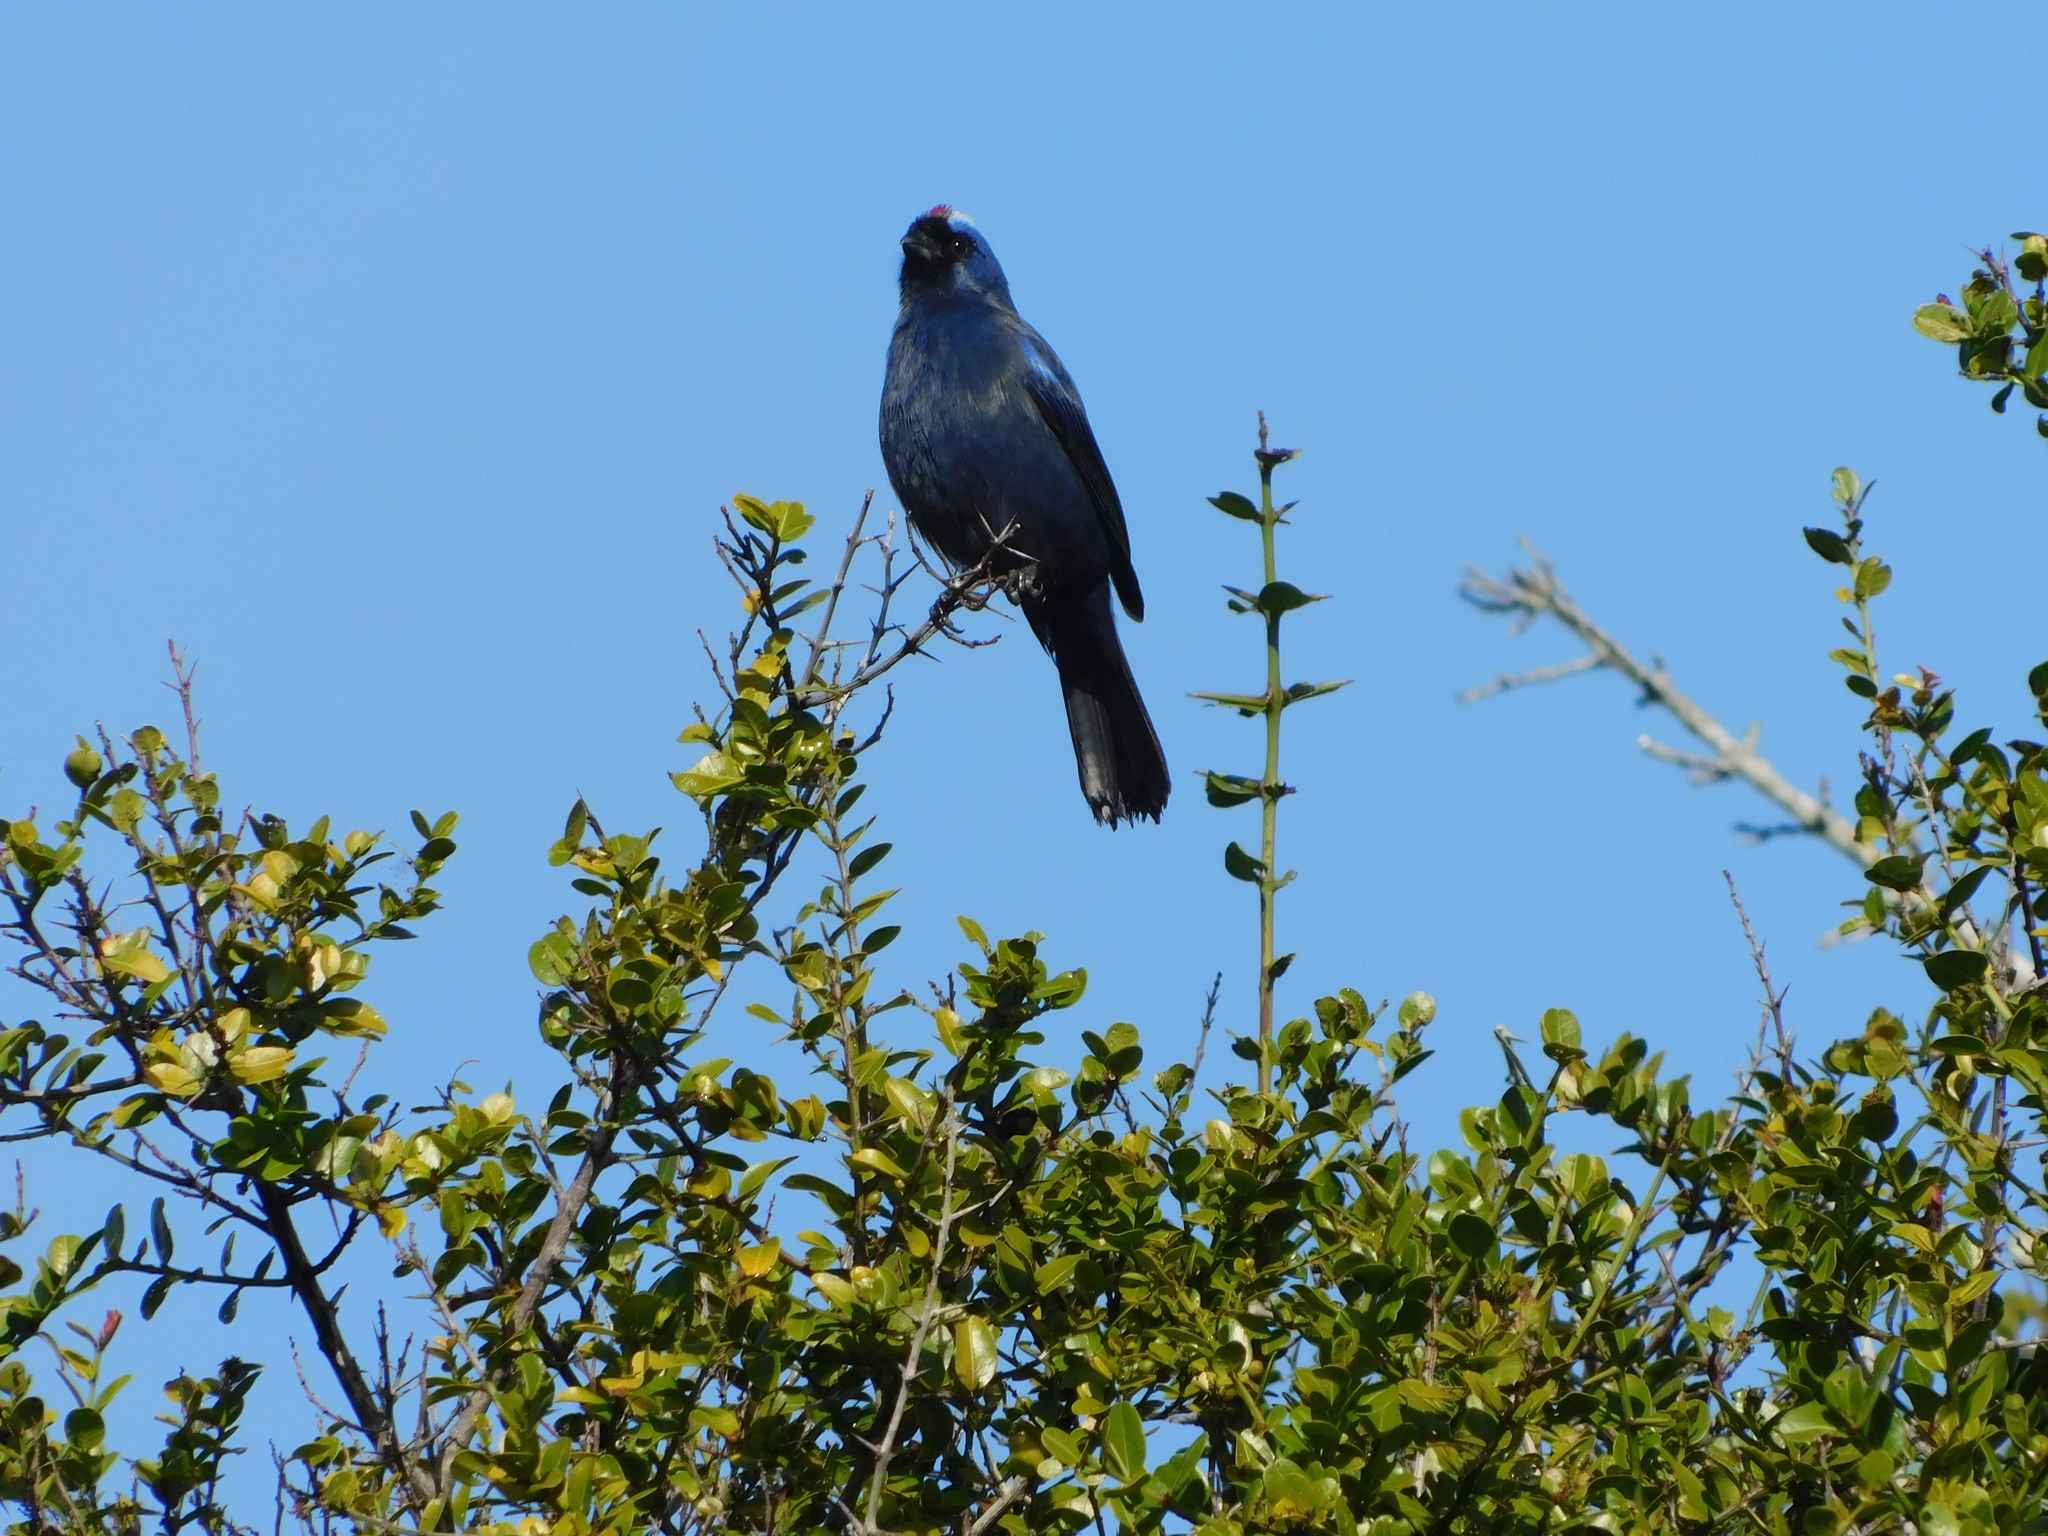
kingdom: Animalia
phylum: Chordata
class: Aves
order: Passeriformes
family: Thraupidae
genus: Stephanophorus
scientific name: Stephanophorus diadematus
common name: Diademed tanager
